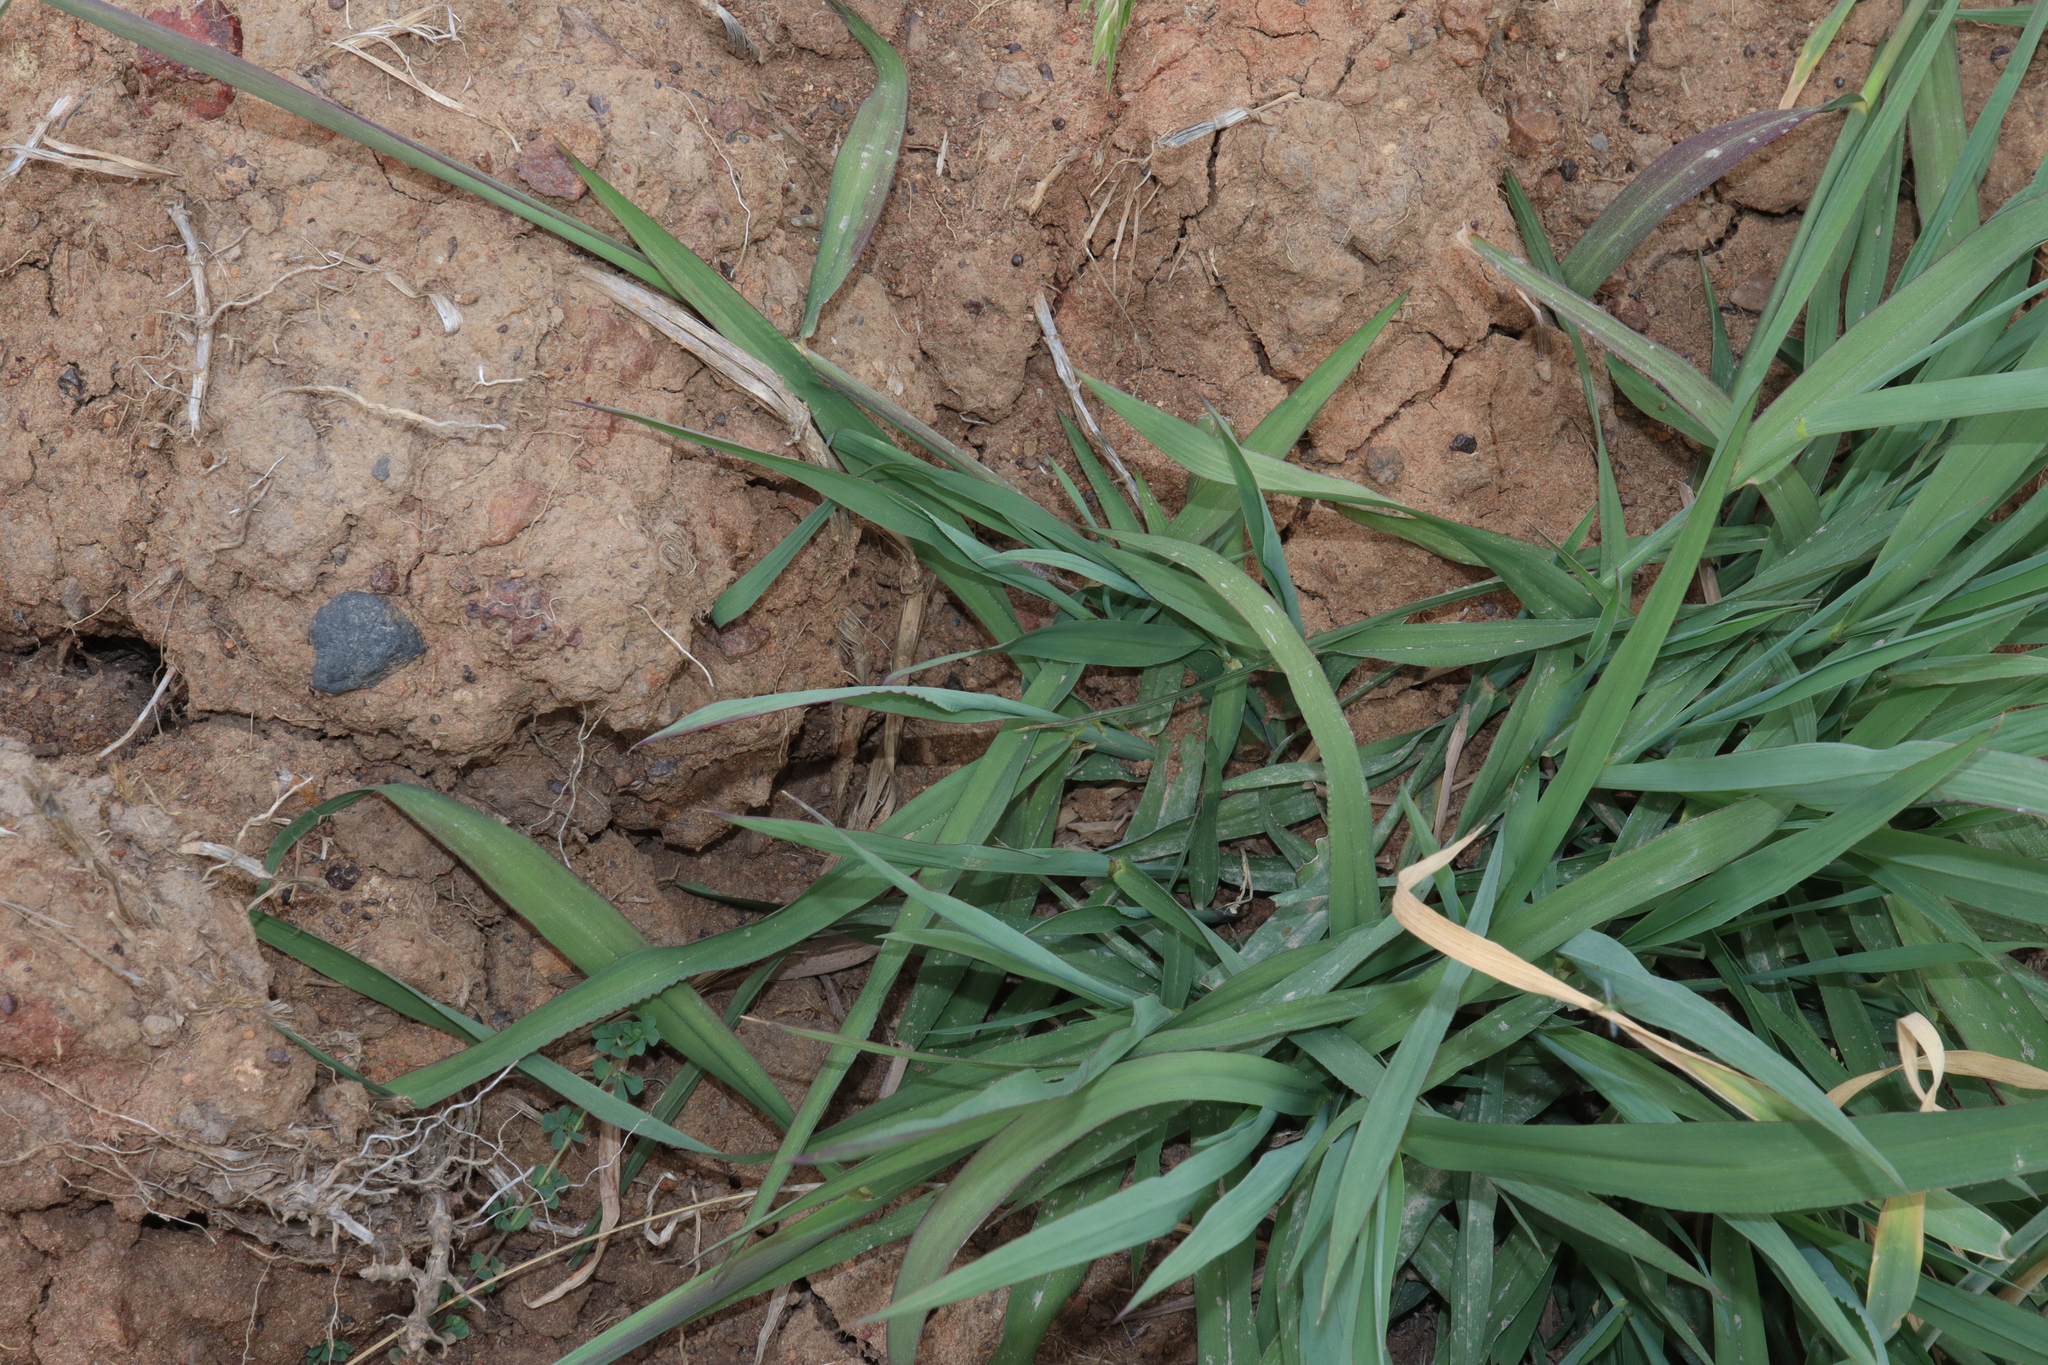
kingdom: Plantae
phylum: Tracheophyta
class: Liliopsida
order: Poales
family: Poaceae
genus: Paspalum
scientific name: Paspalum dilatatum
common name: Dallisgrass
